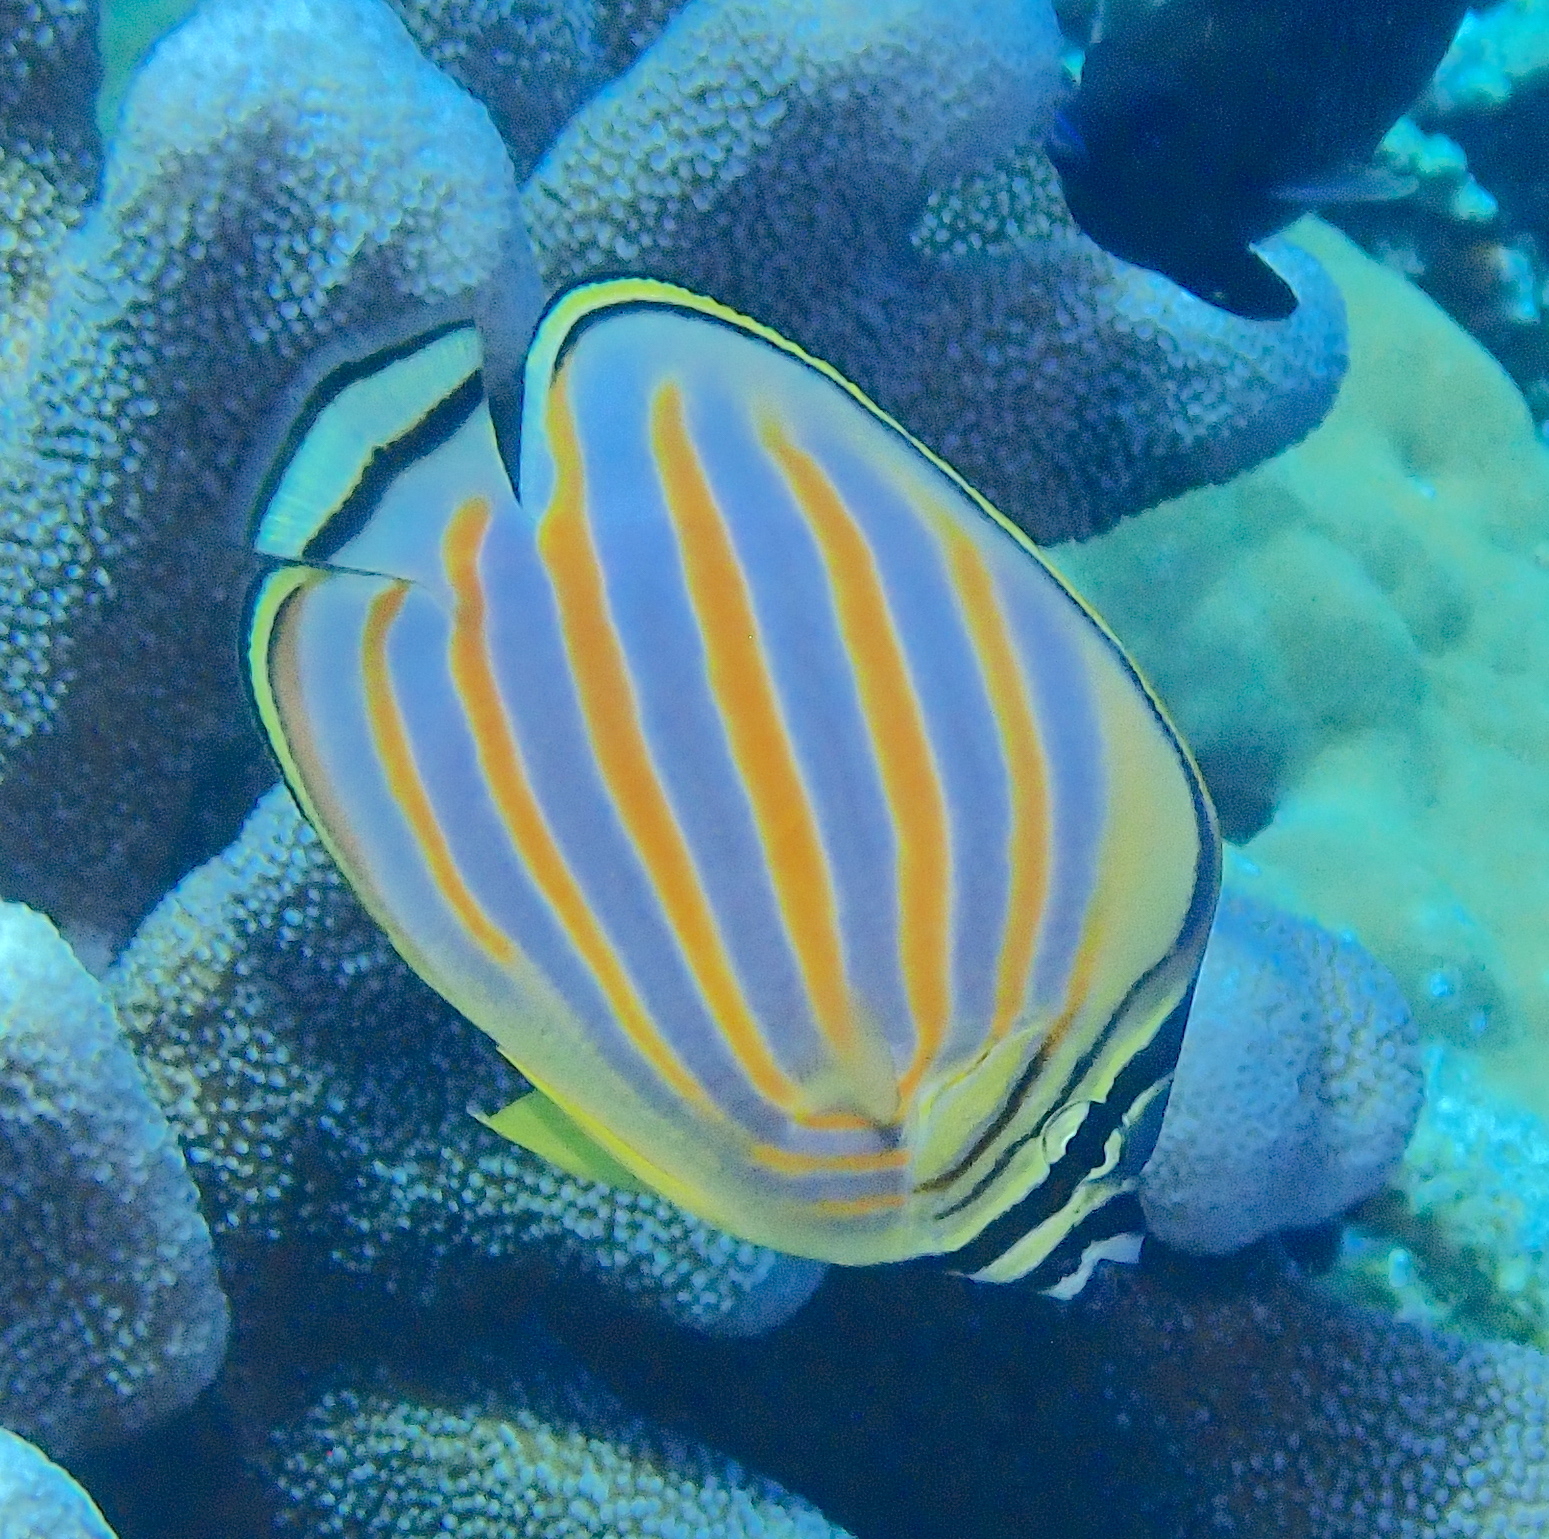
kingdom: Animalia
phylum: Chordata
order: Perciformes
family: Chaetodontidae
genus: Chaetodon
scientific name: Chaetodon ornatissimus
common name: Ornate butterflyfish
